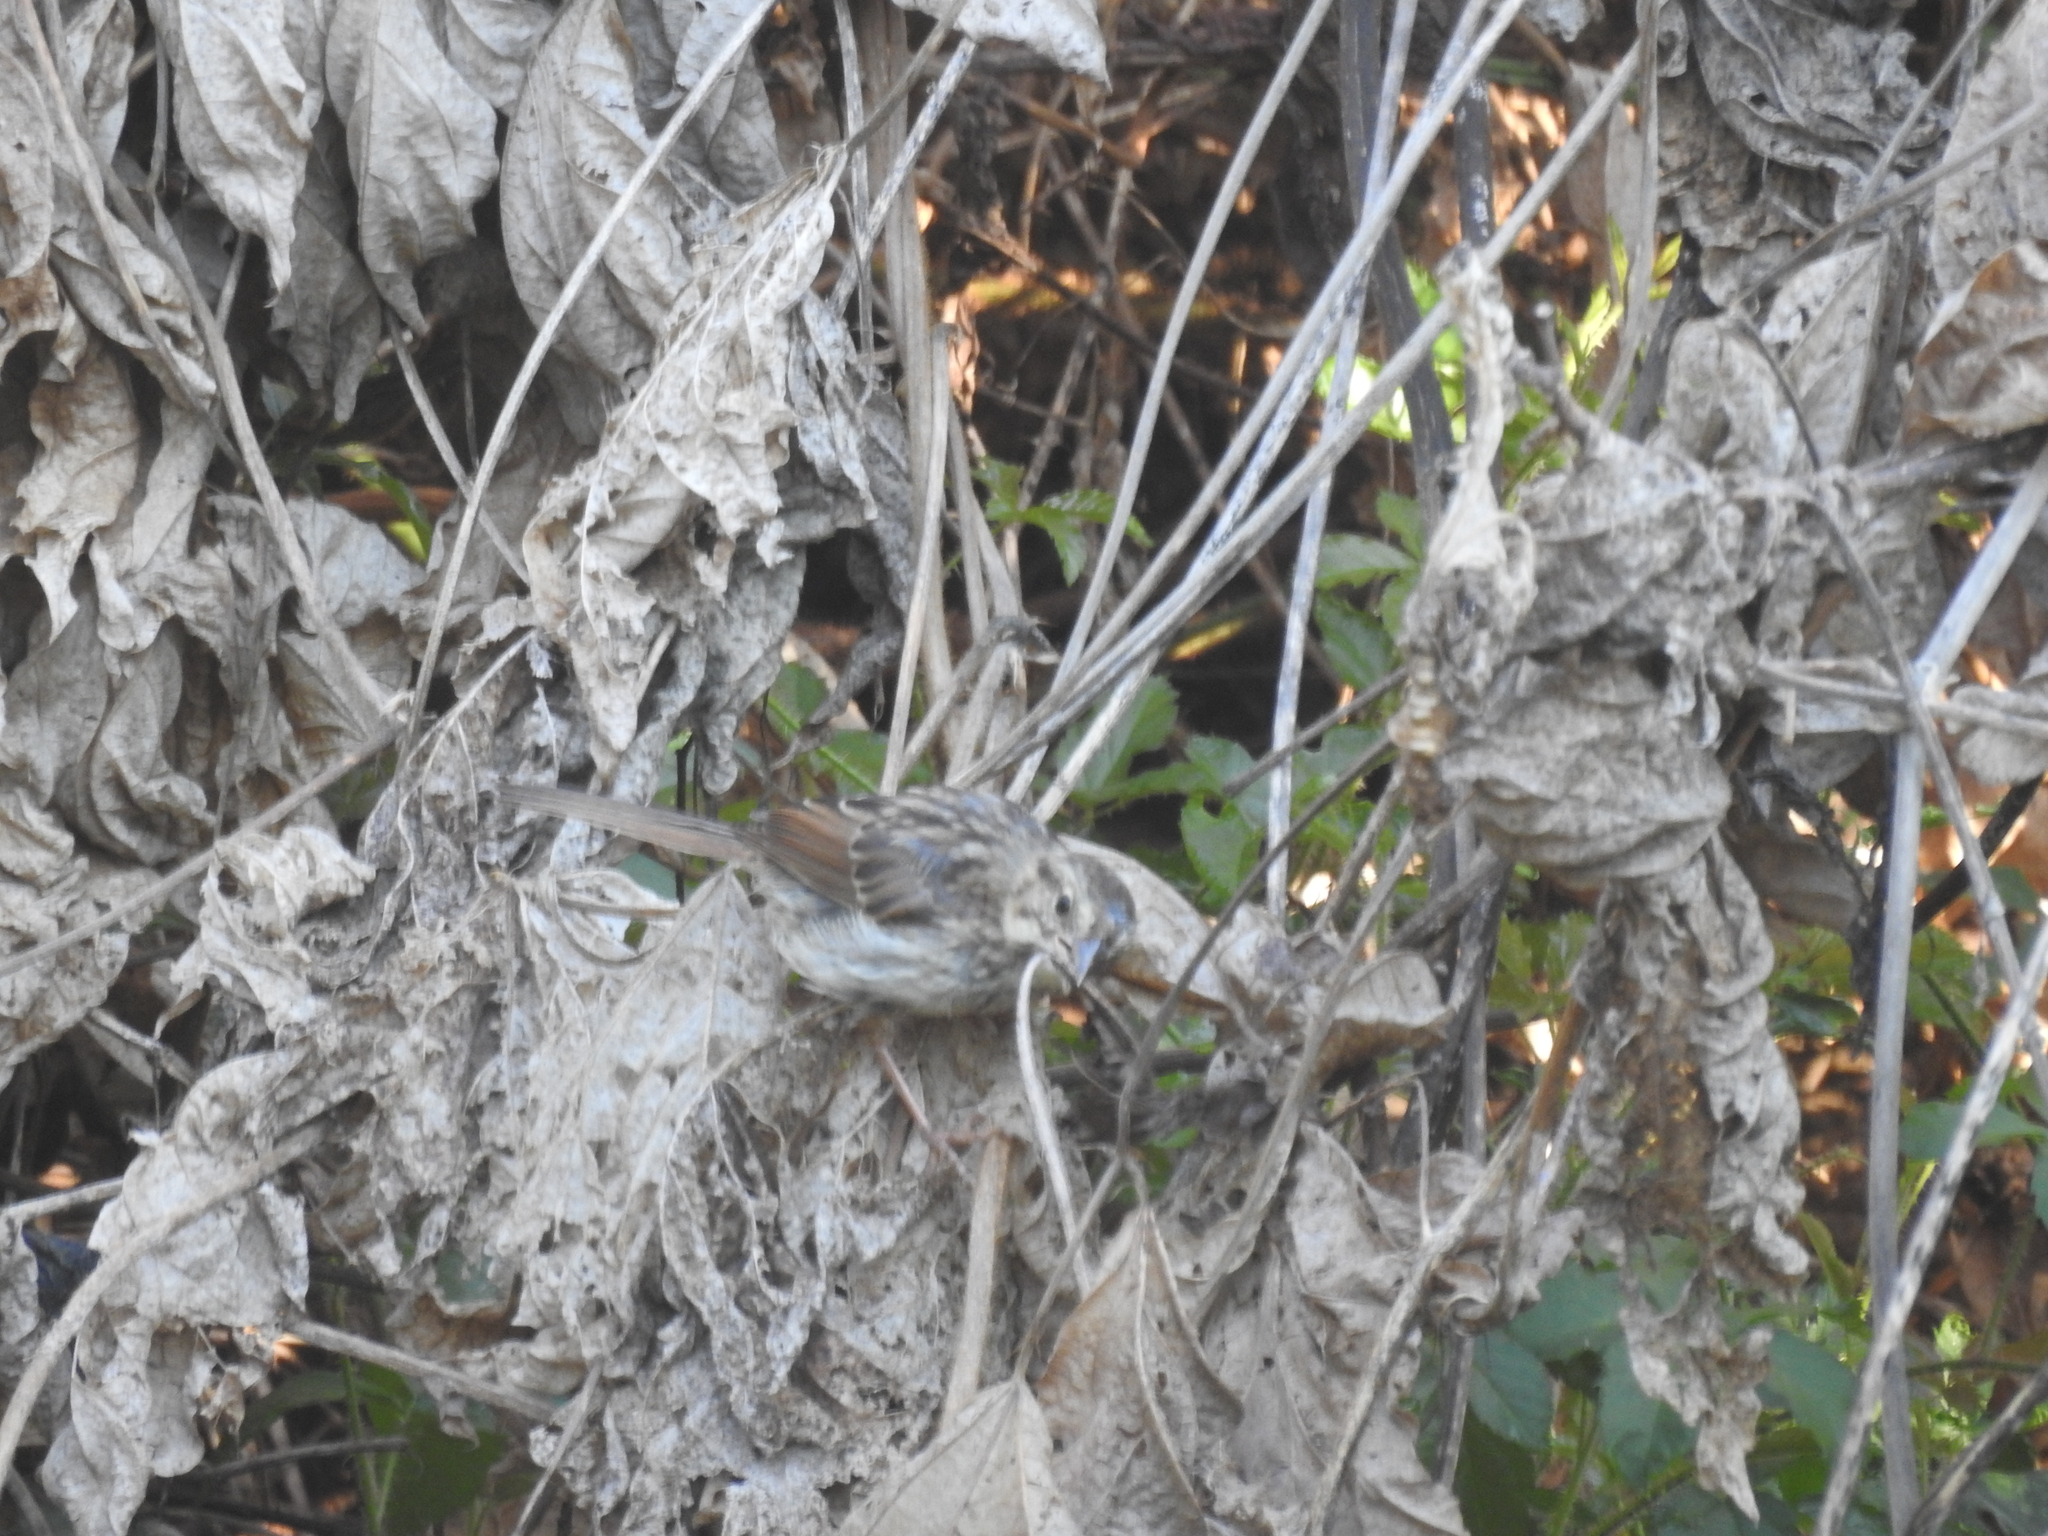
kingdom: Animalia
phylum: Chordata
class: Aves
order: Passeriformes
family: Passerellidae
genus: Melospiza
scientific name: Melospiza melodia
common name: Song sparrow
